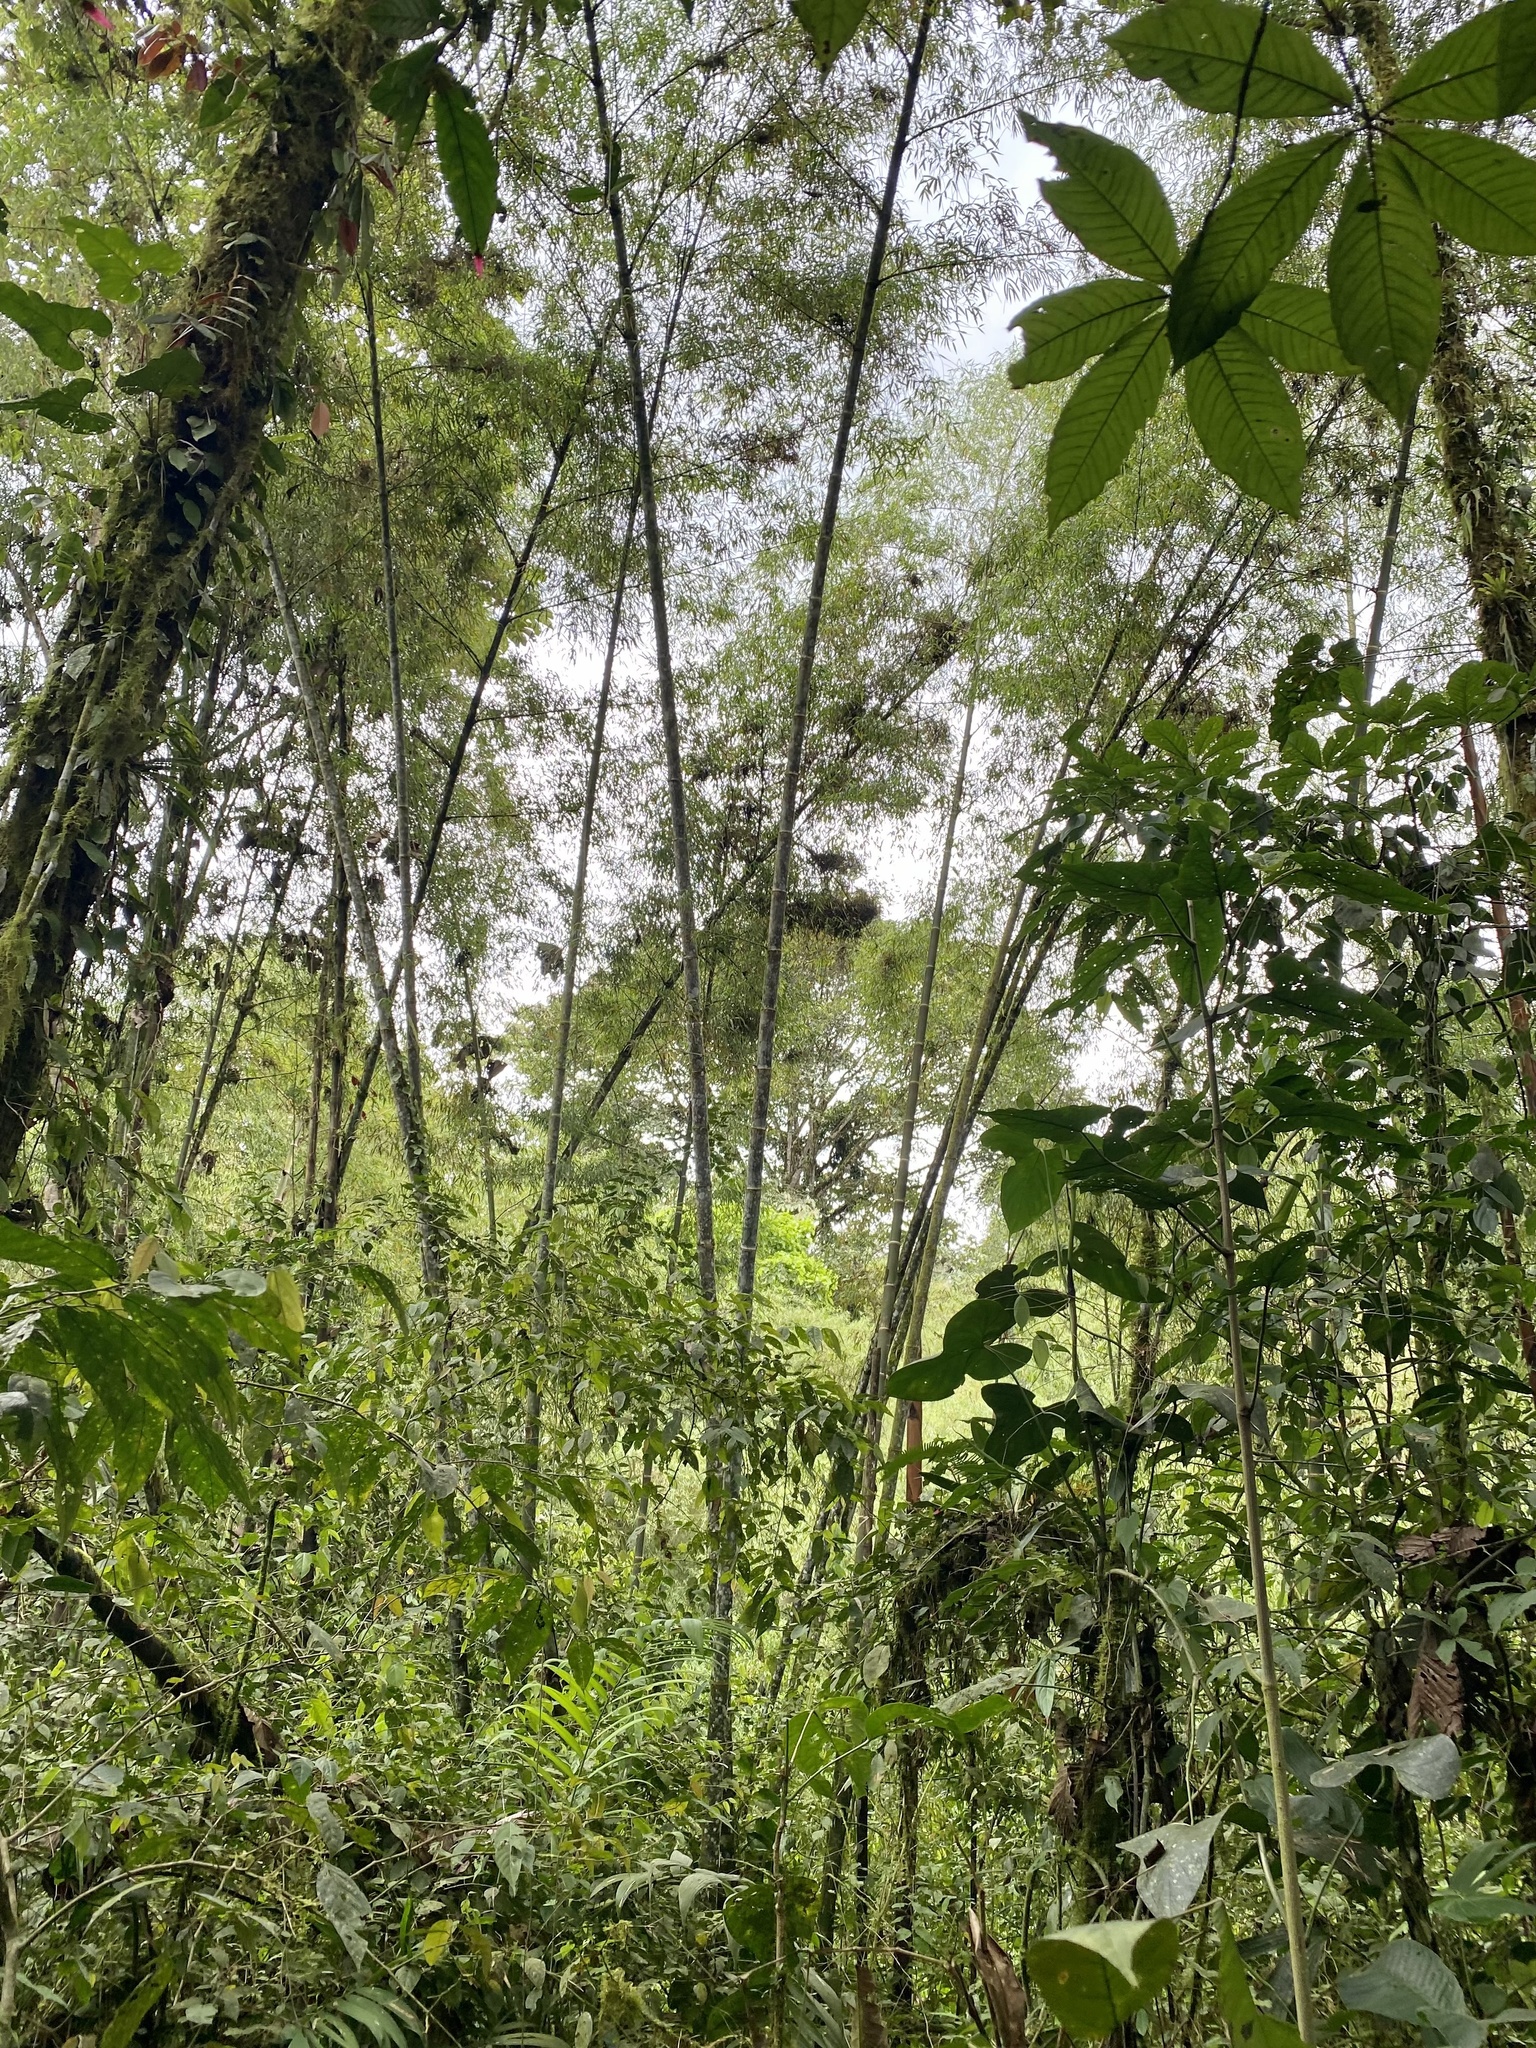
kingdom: Plantae
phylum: Tracheophyta
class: Liliopsida
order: Poales
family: Poaceae
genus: Guadua
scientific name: Guadua angustifolia
